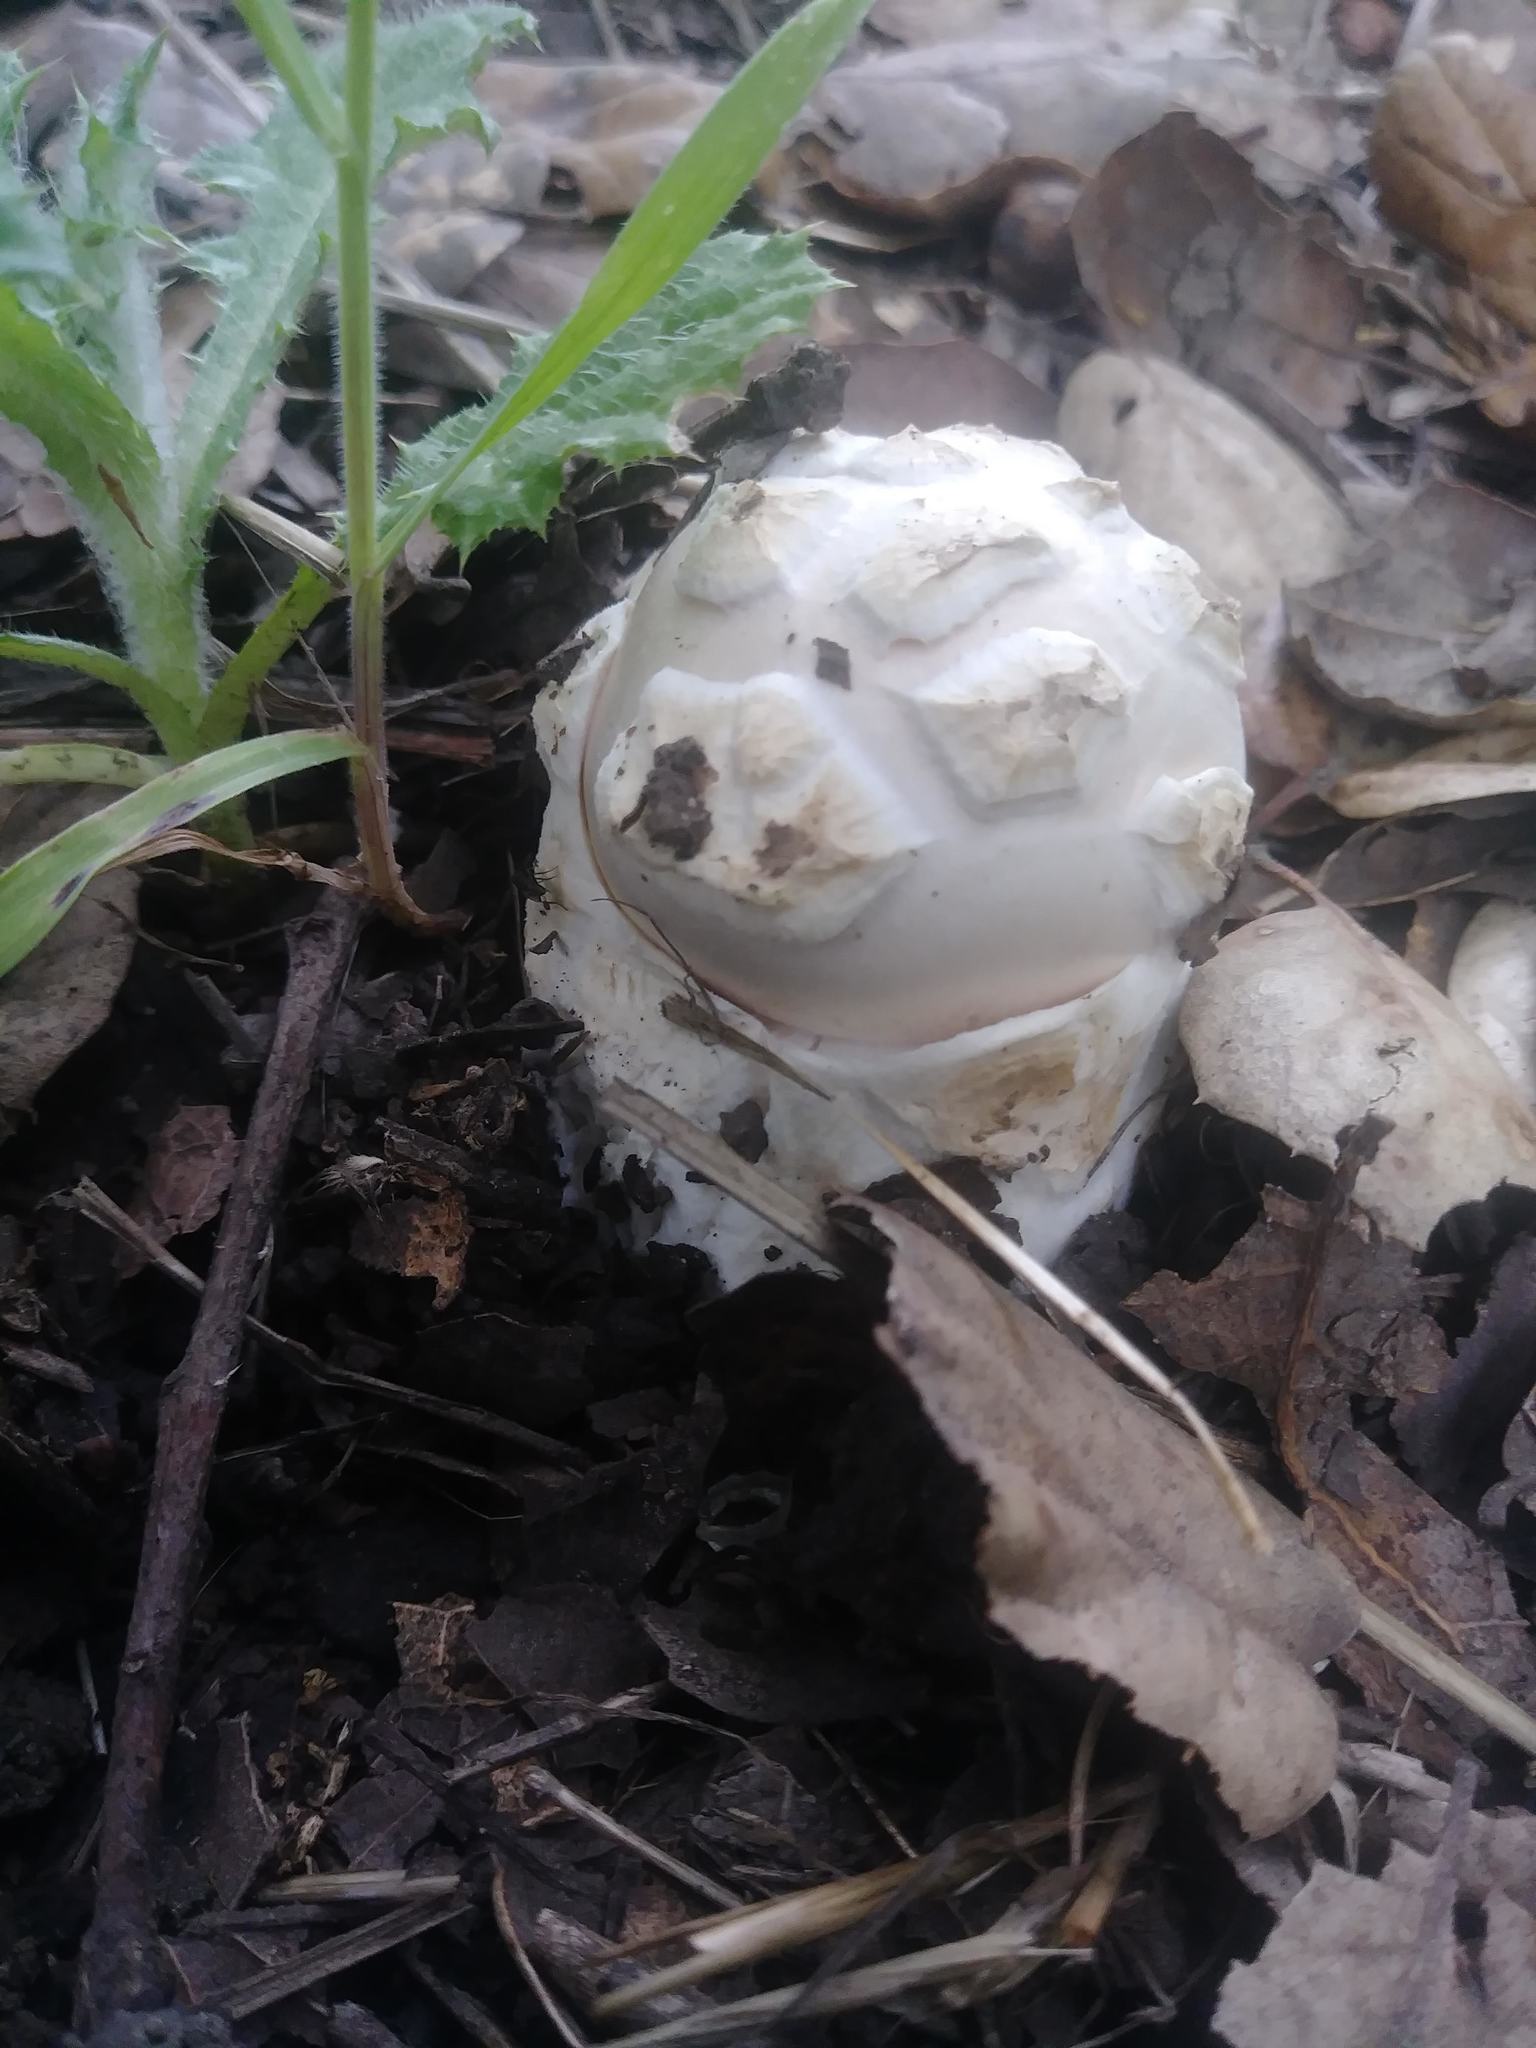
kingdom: Fungi
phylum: Basidiomycota
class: Agaricomycetes
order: Agaricales
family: Amanitaceae
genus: Amanita
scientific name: Amanita velosa
